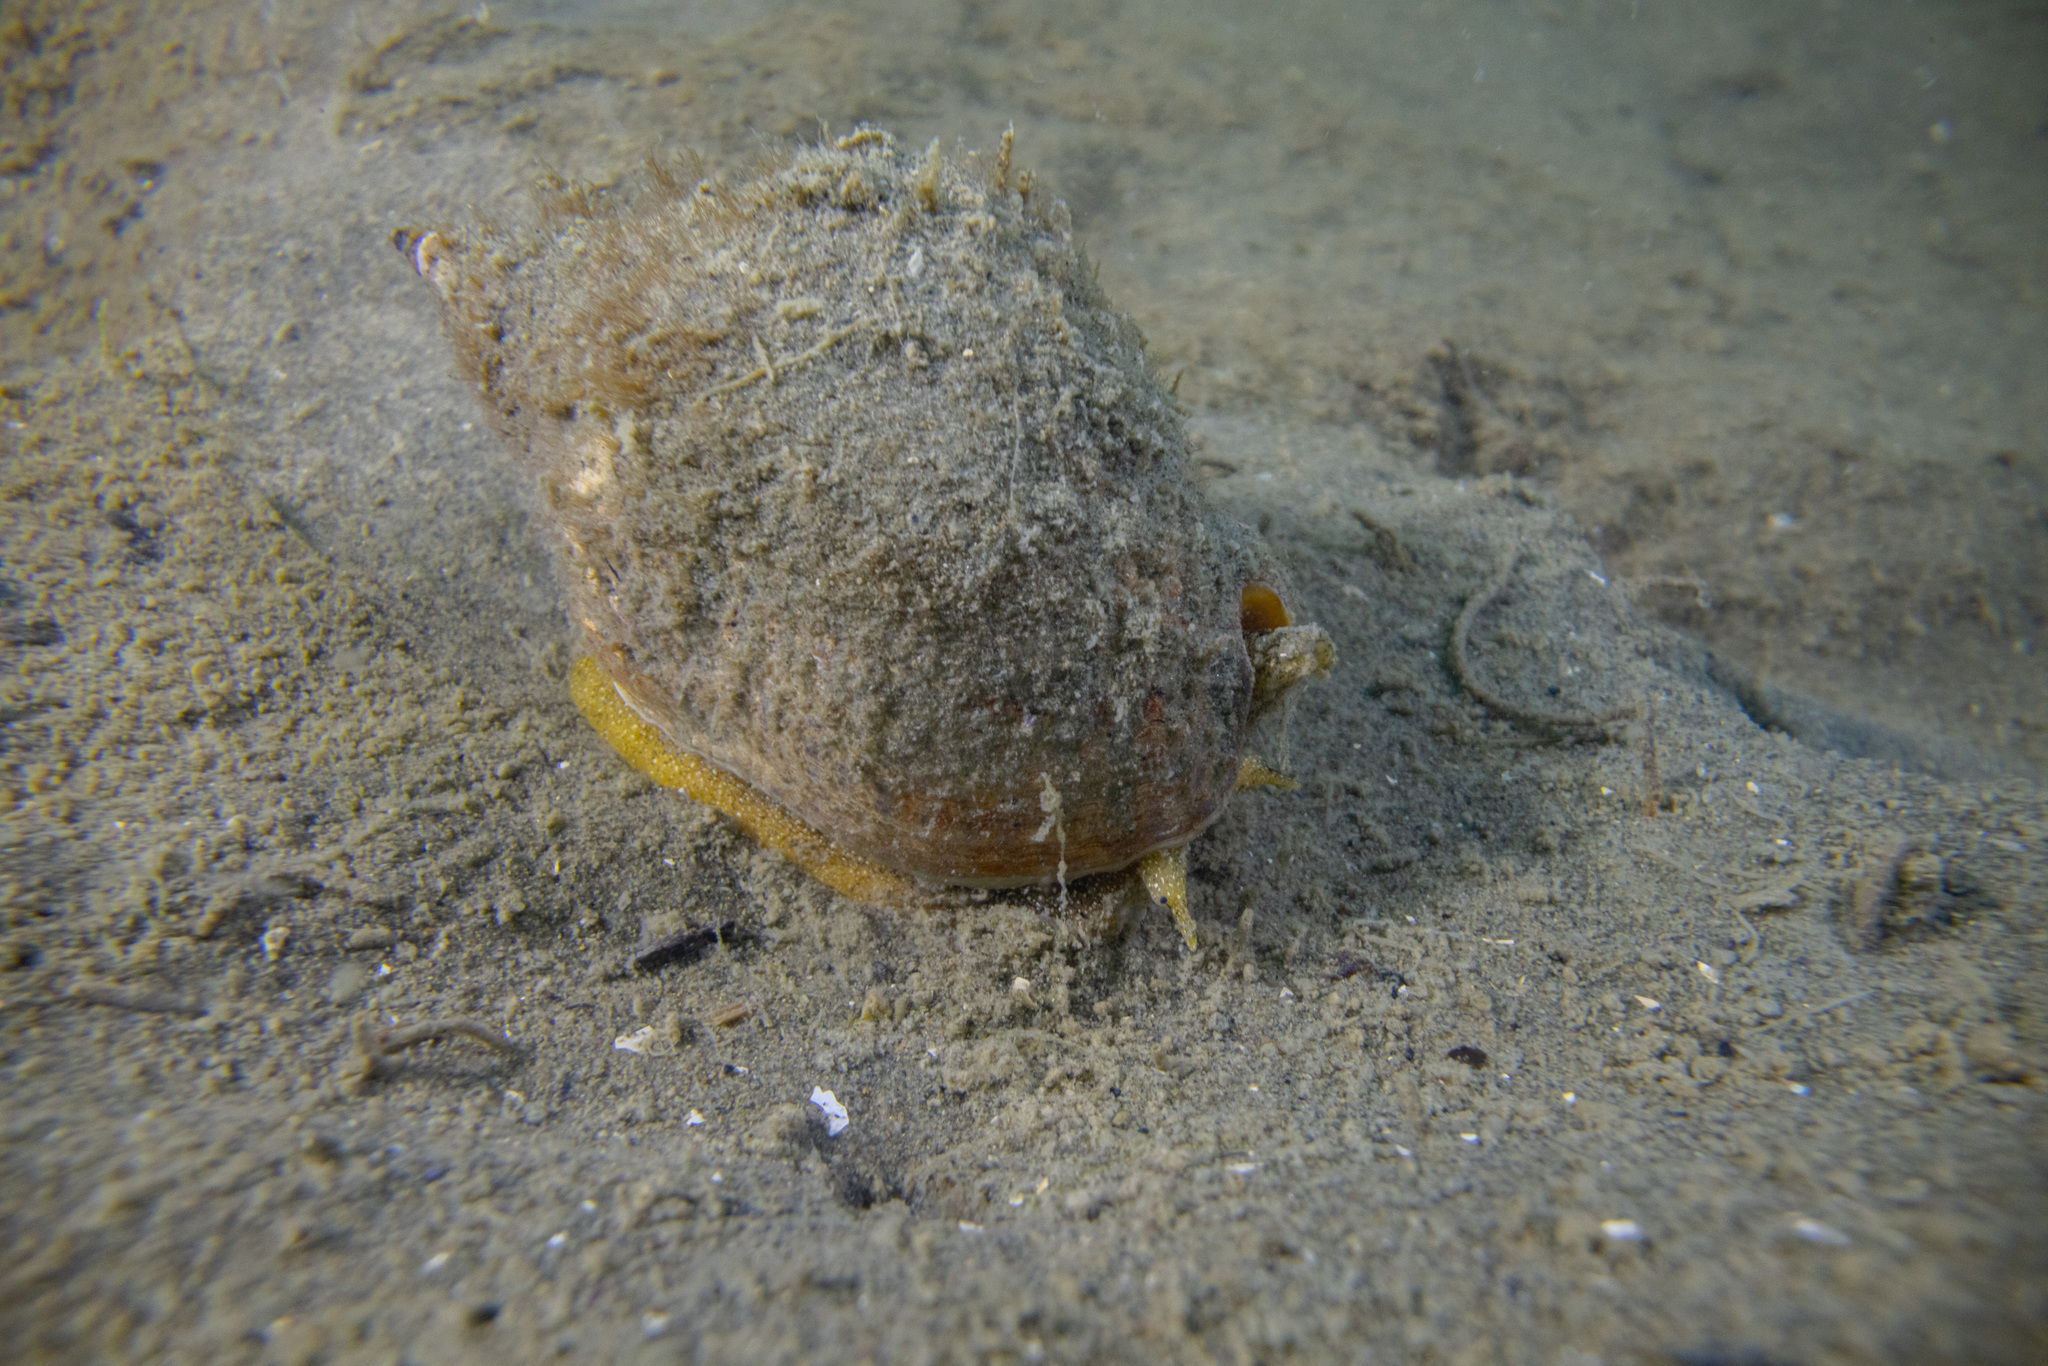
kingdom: Animalia
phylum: Mollusca
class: Gastropoda
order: Neogastropoda
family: Cominellidae
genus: Cominella
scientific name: Cominella adspersa
